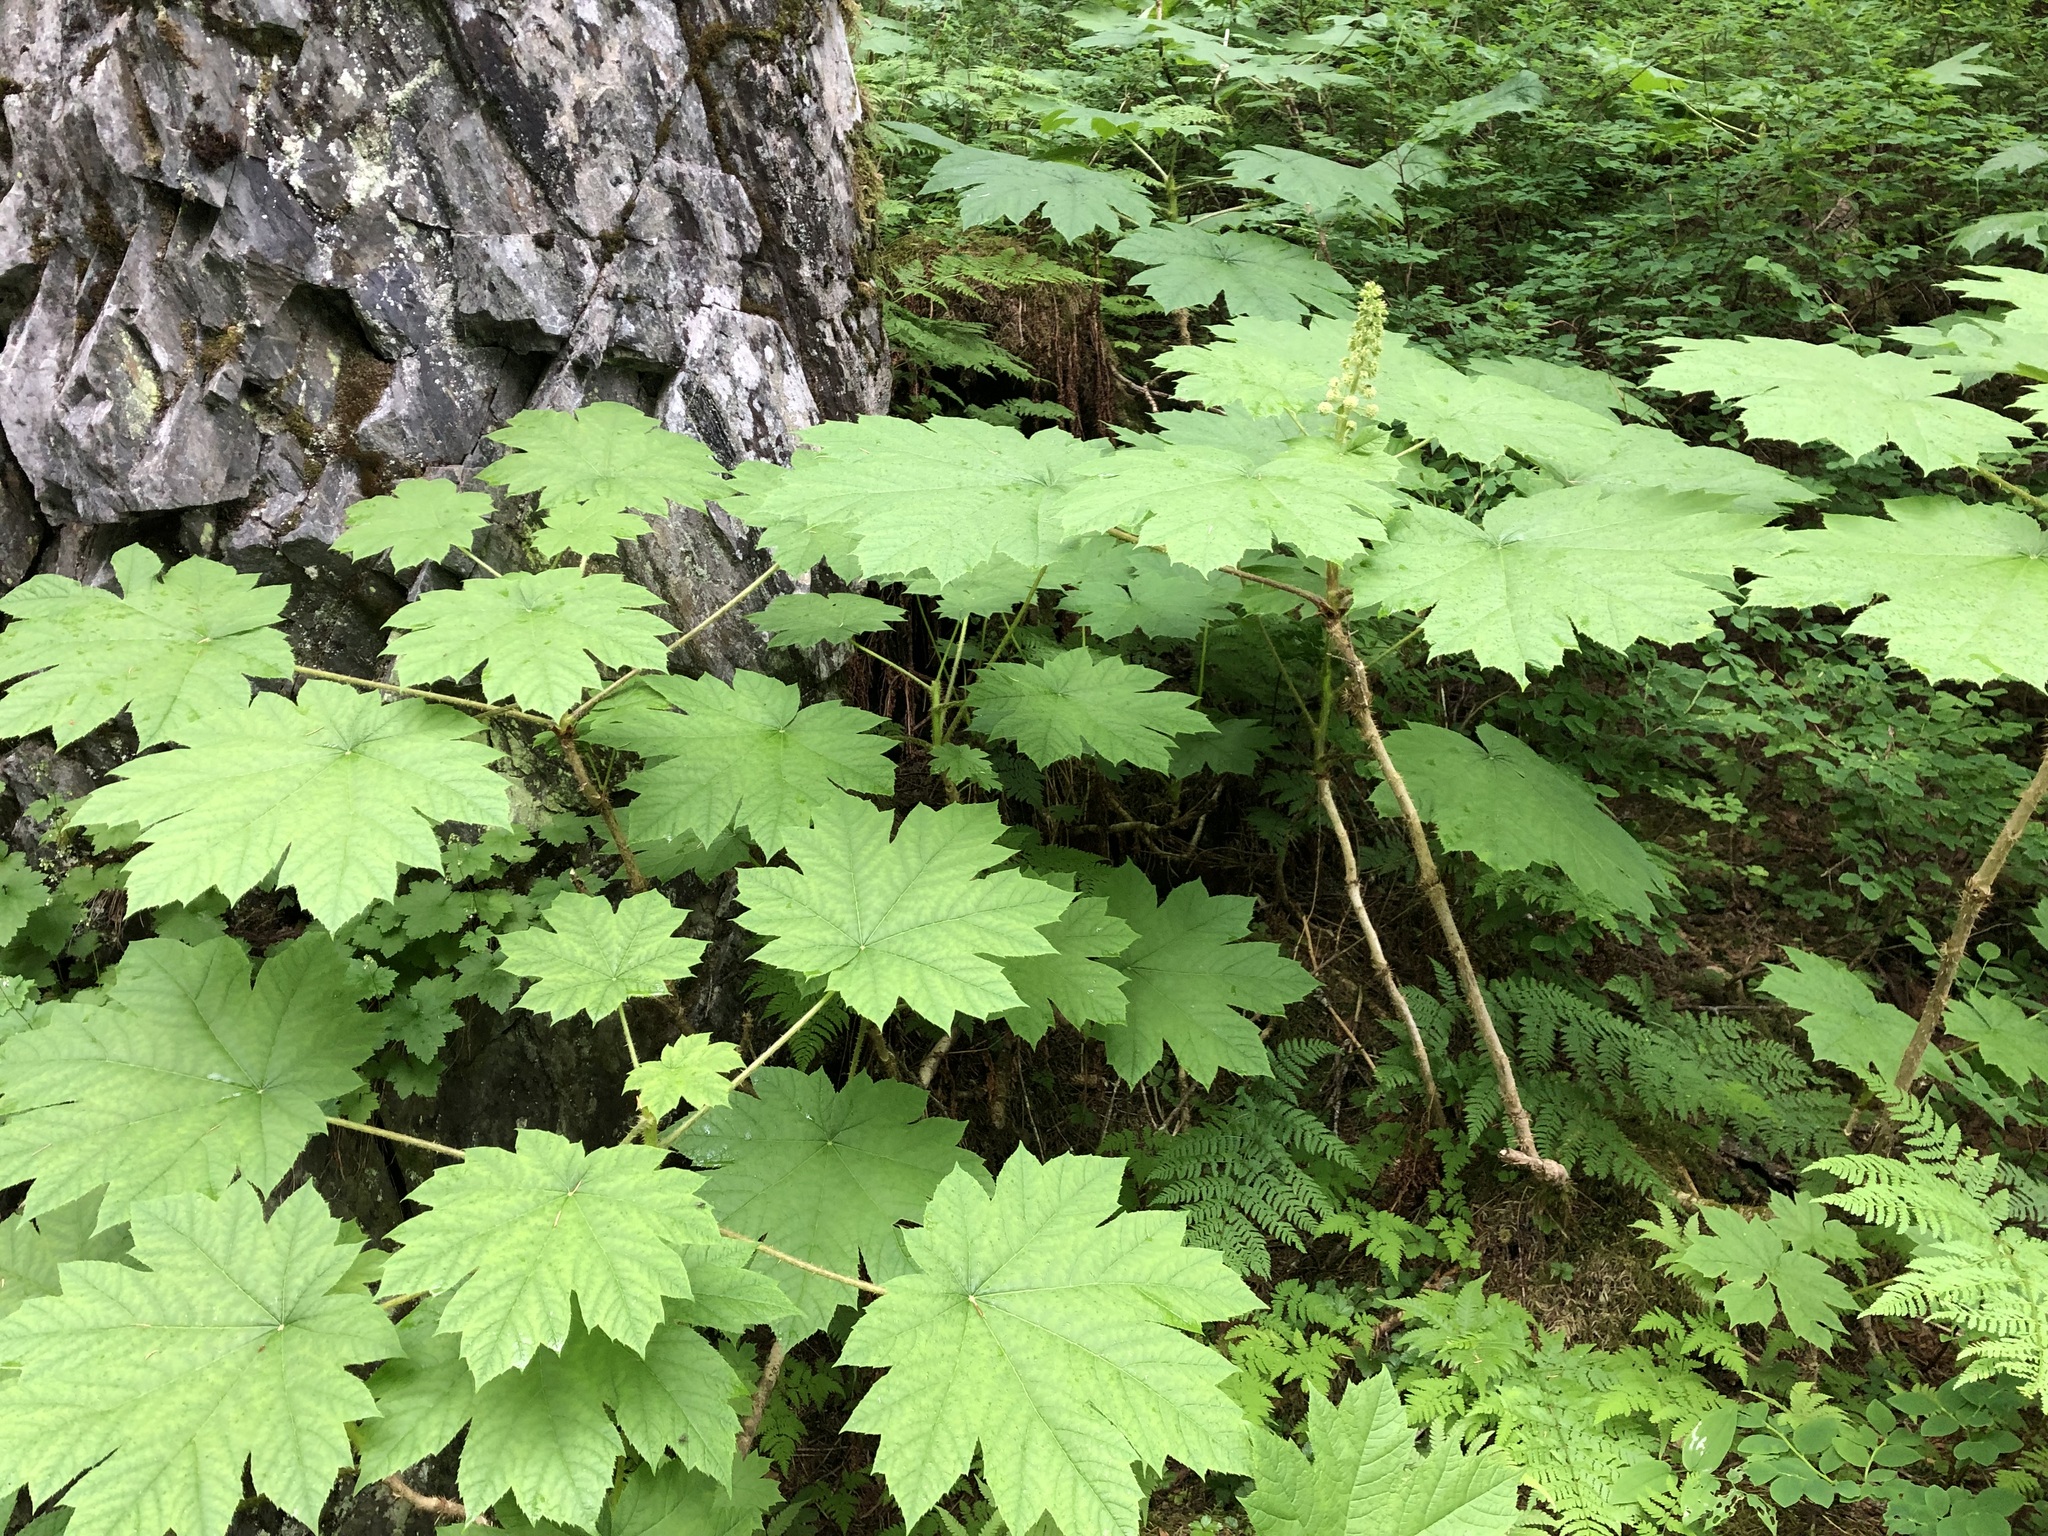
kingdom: Plantae
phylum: Tracheophyta
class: Magnoliopsida
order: Apiales
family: Araliaceae
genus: Oplopanax
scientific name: Oplopanax horridus
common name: Devil's walking-stick
